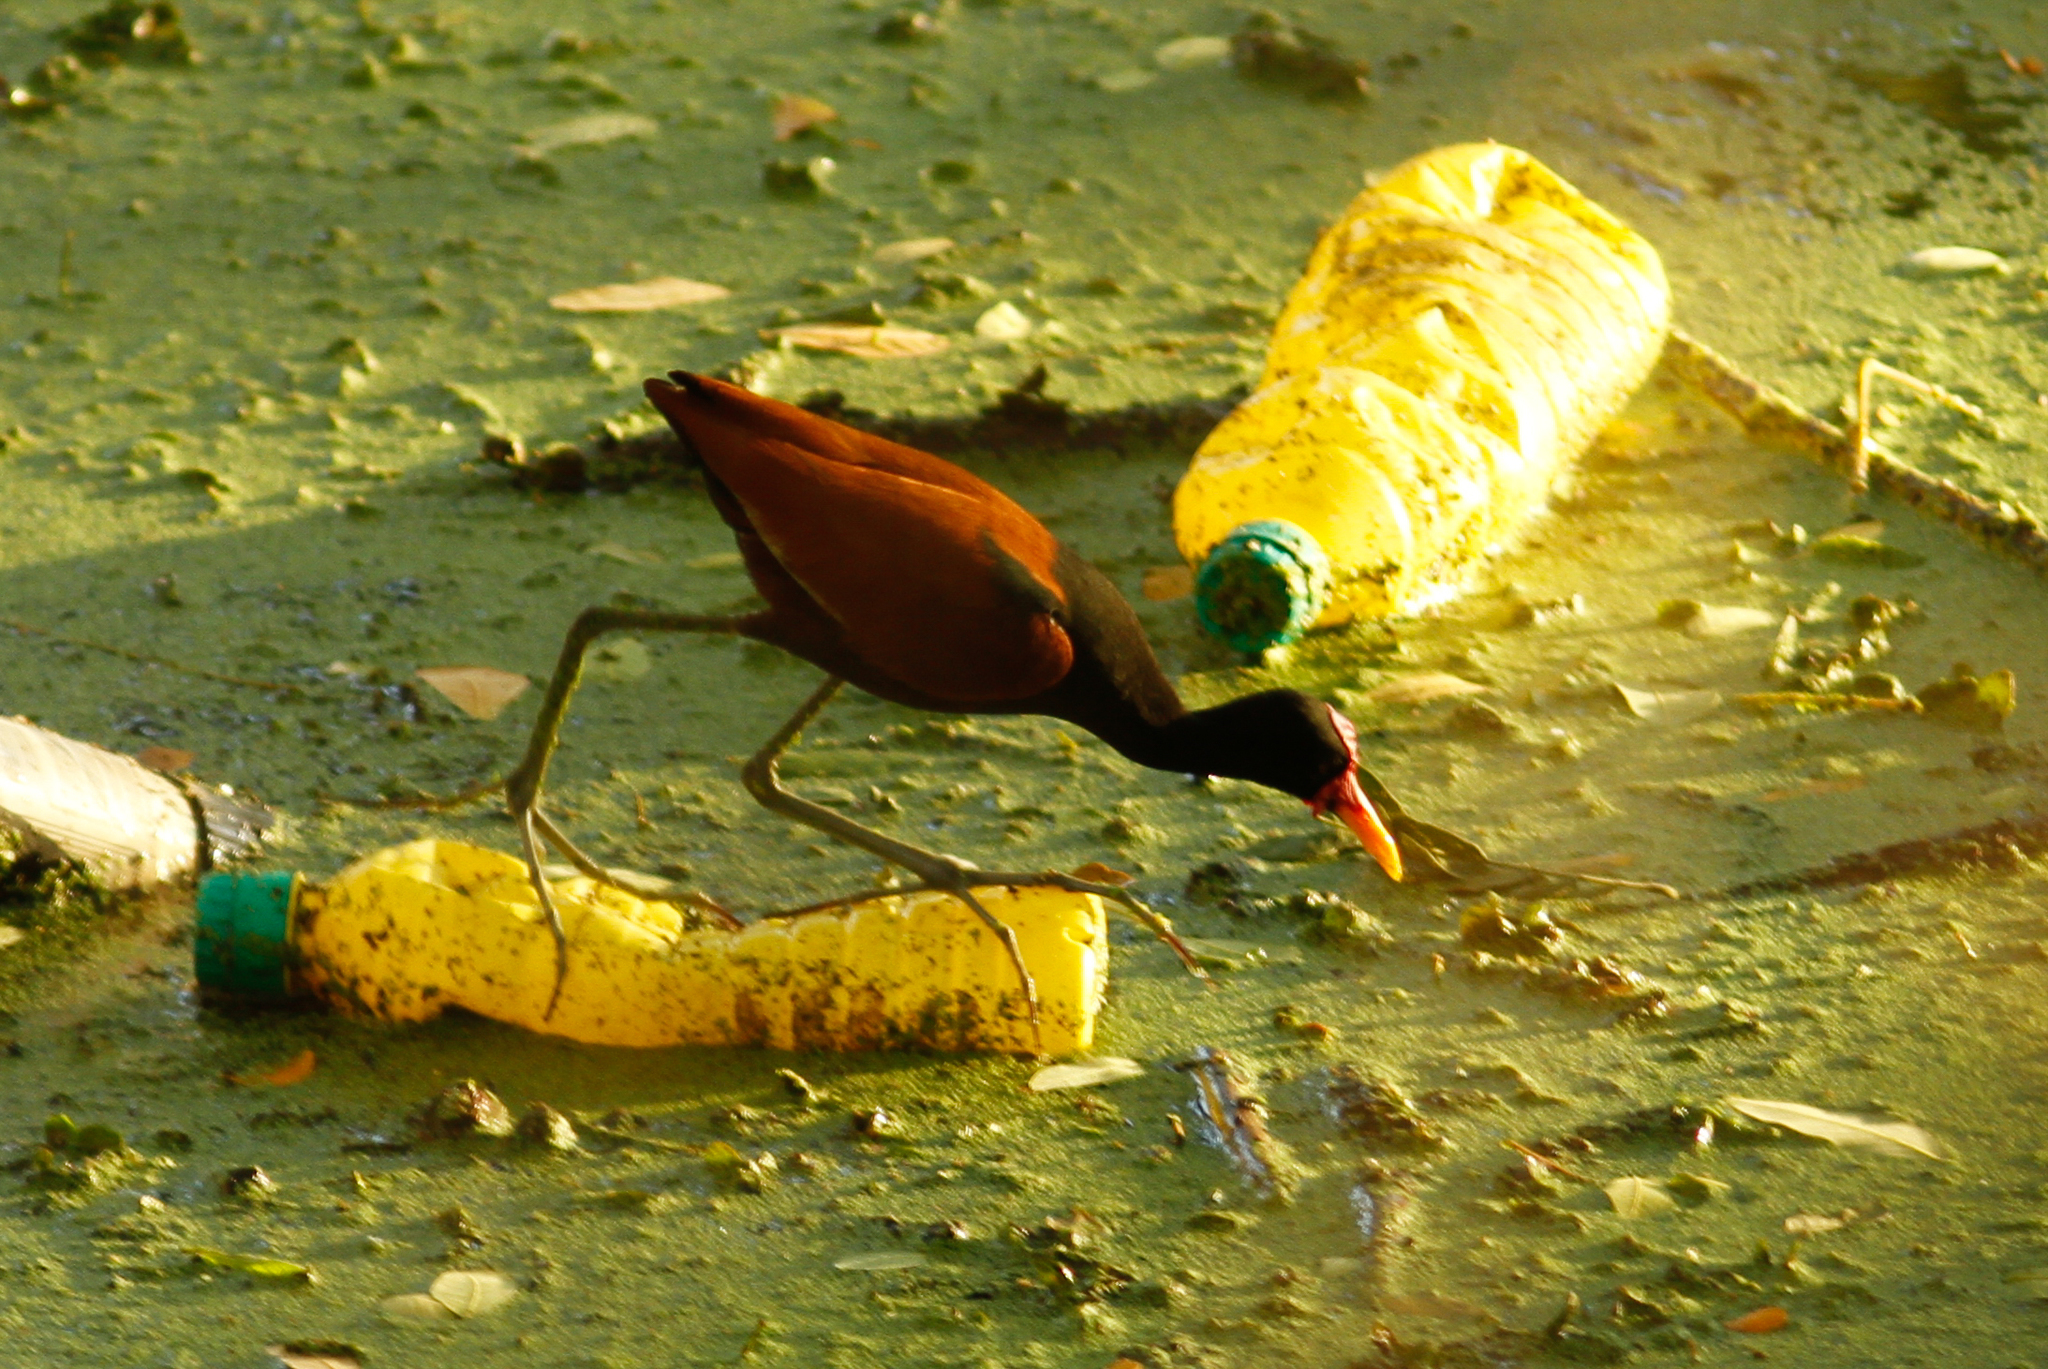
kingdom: Animalia
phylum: Chordata
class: Aves
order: Charadriiformes
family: Jacanidae
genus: Jacana
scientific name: Jacana jacana
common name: Wattled jacana
